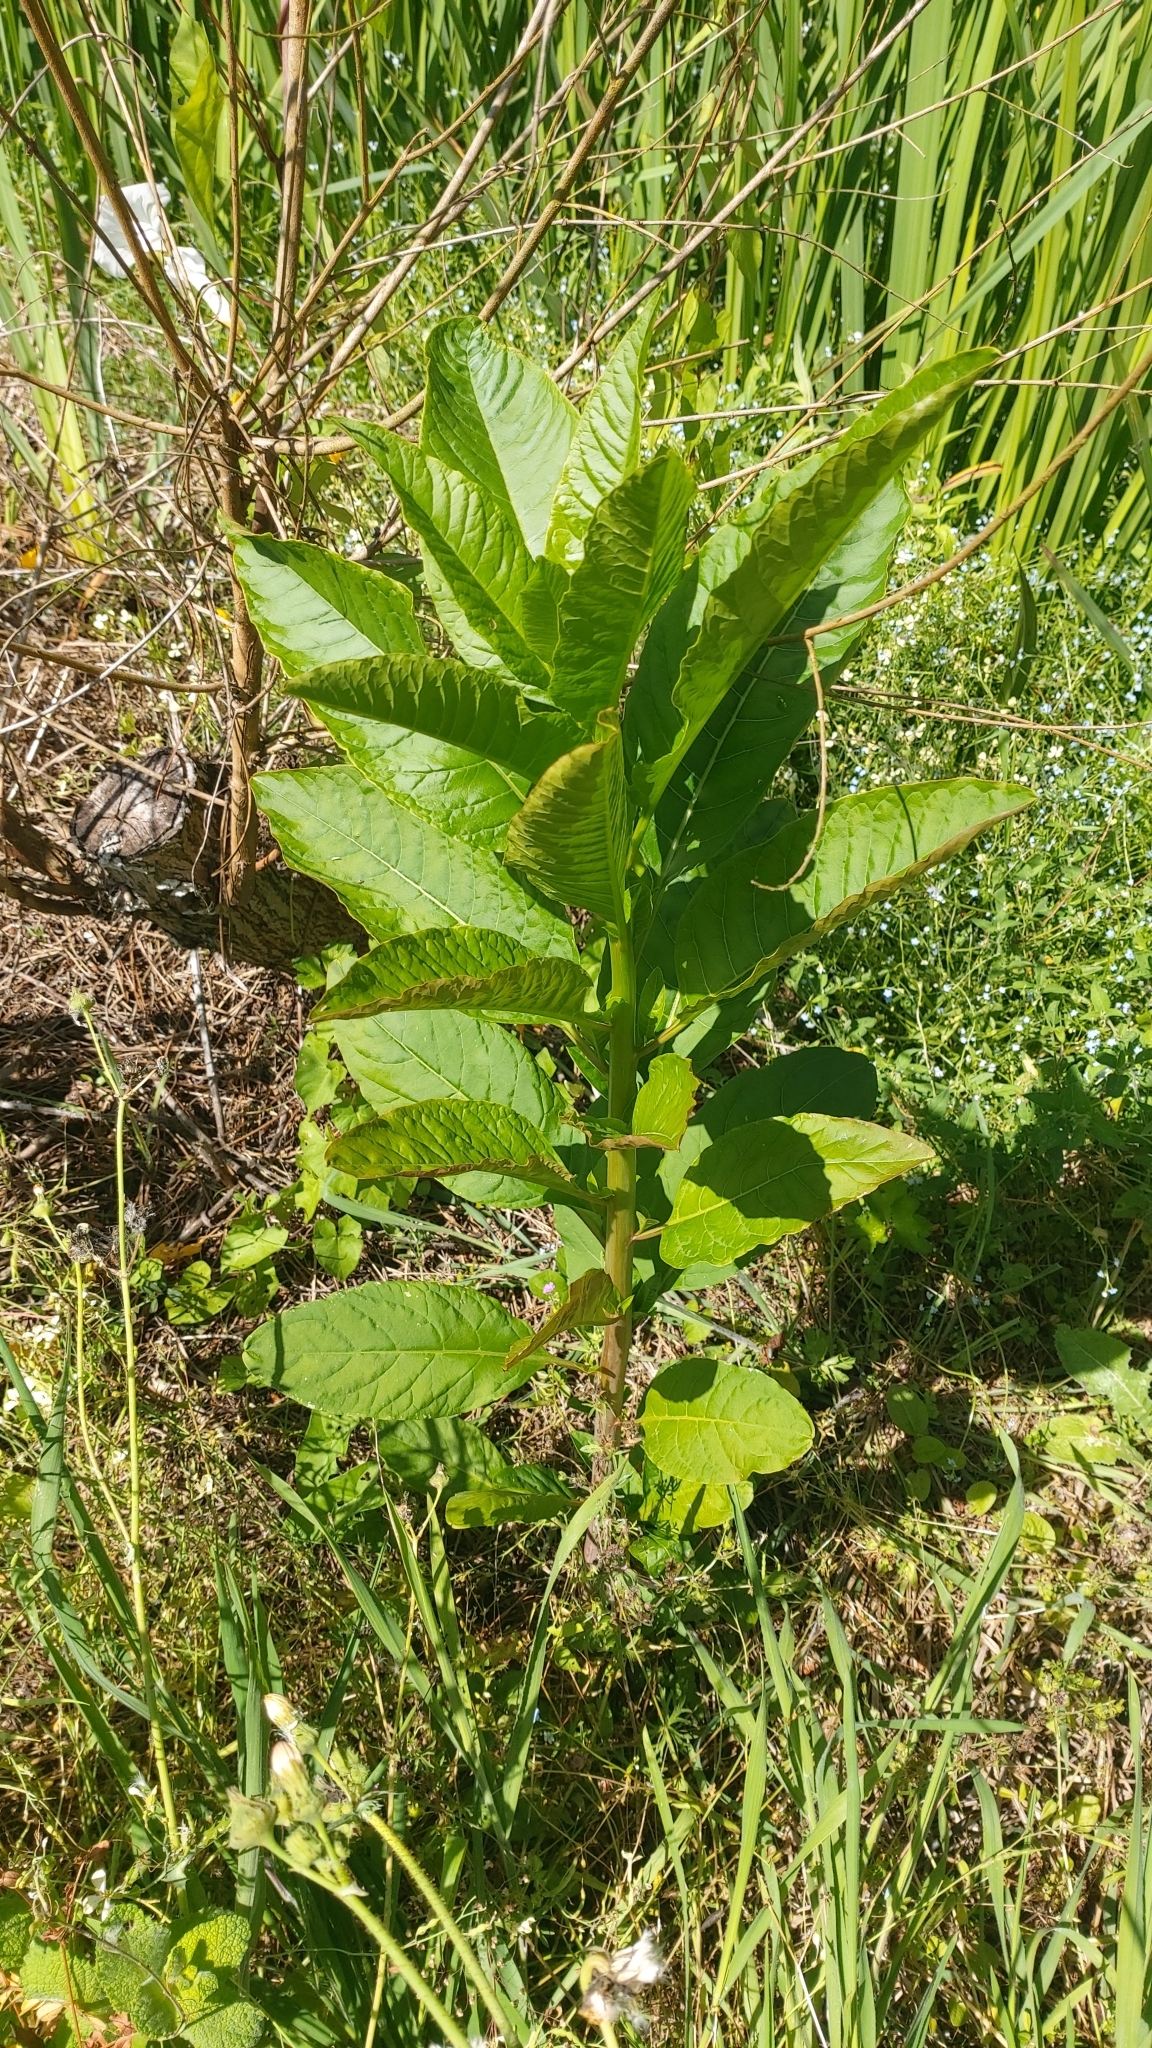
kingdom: Plantae
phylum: Tracheophyta
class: Magnoliopsida
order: Caryophyllales
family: Phytolaccaceae
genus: Phytolacca
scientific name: Phytolacca americana
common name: American pokeweed
